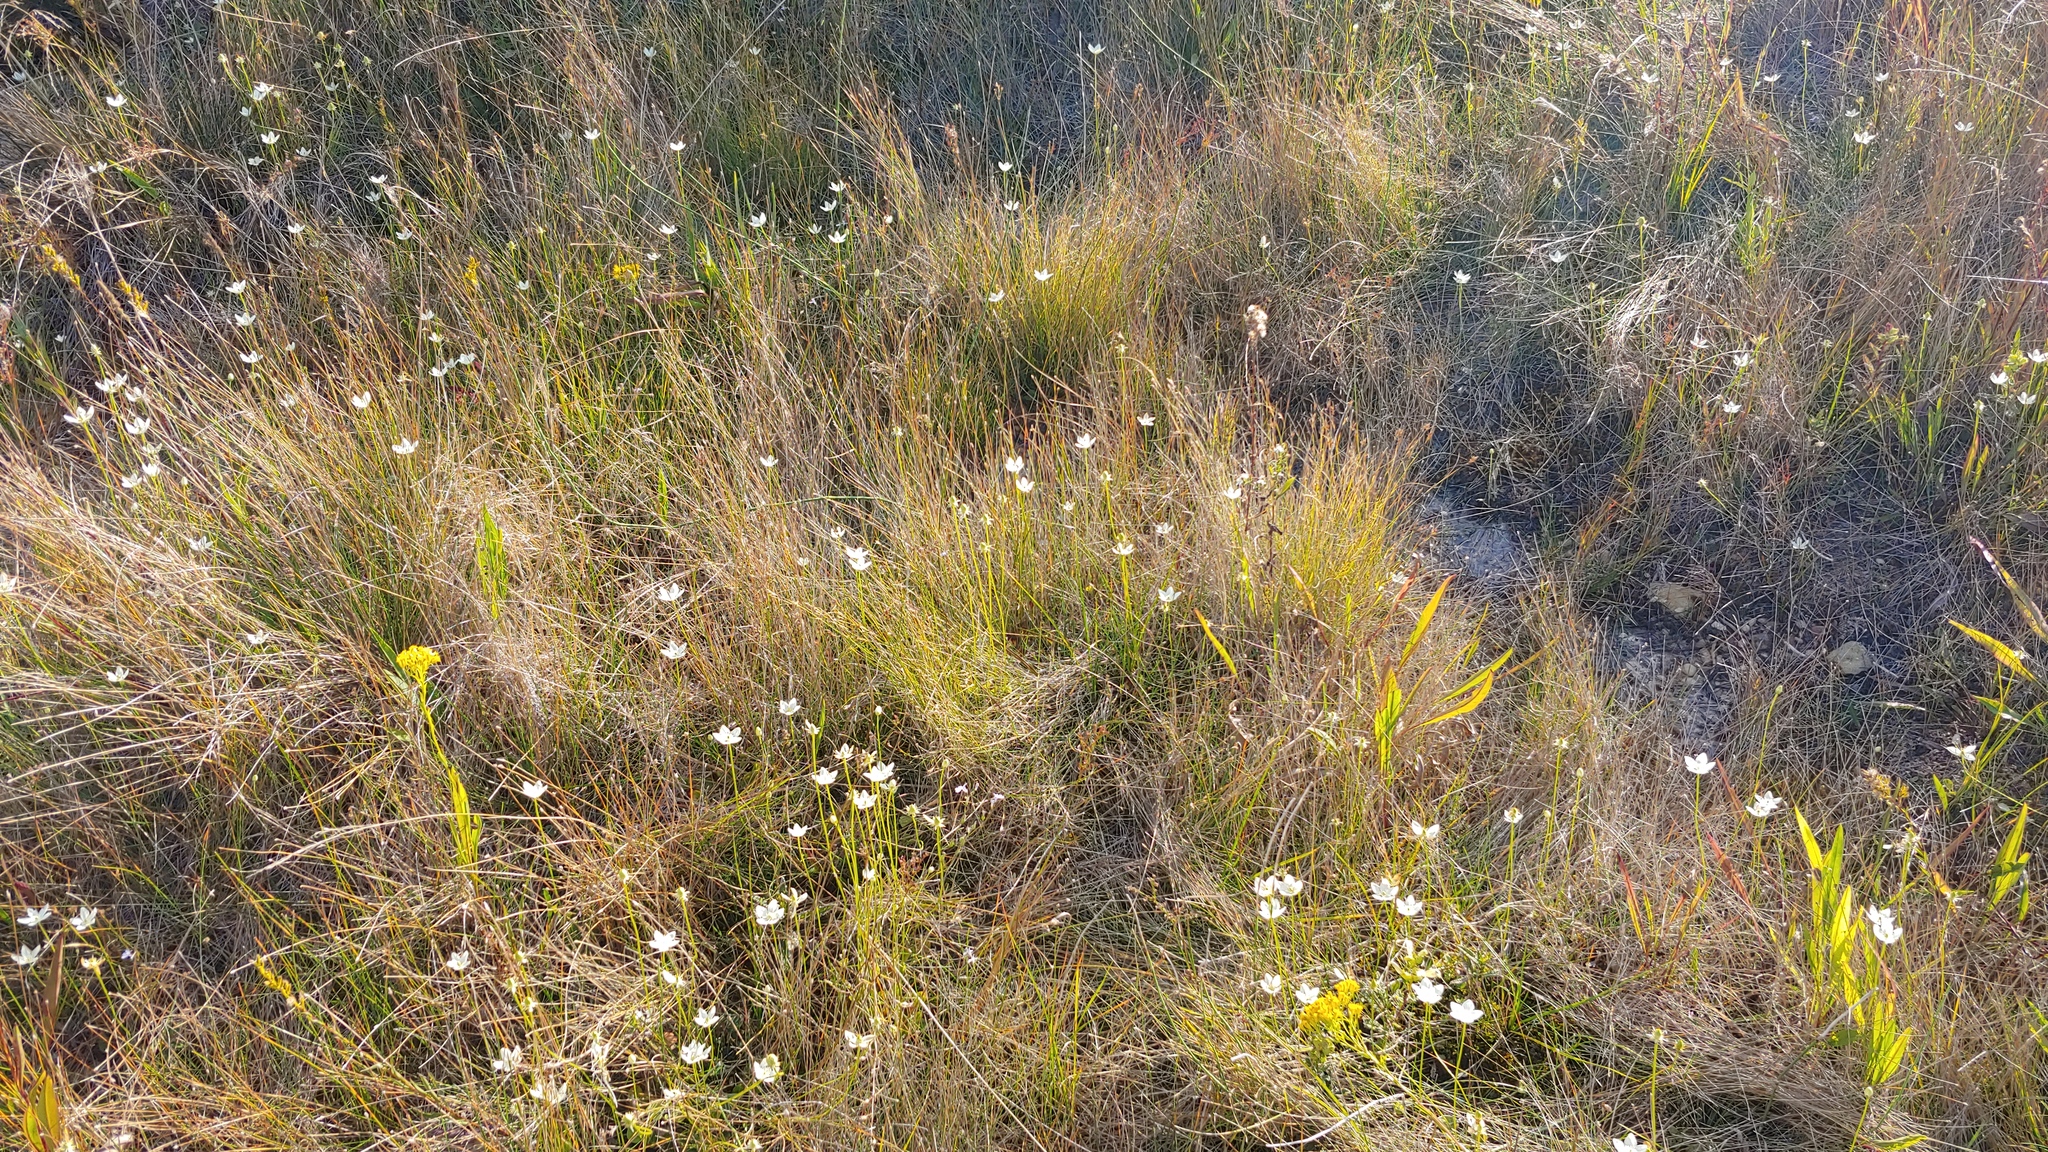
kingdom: Plantae
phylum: Tracheophyta
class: Magnoliopsida
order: Celastrales
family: Parnassiaceae
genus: Parnassia
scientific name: Parnassia glauca
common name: American grass-of-parnassus
